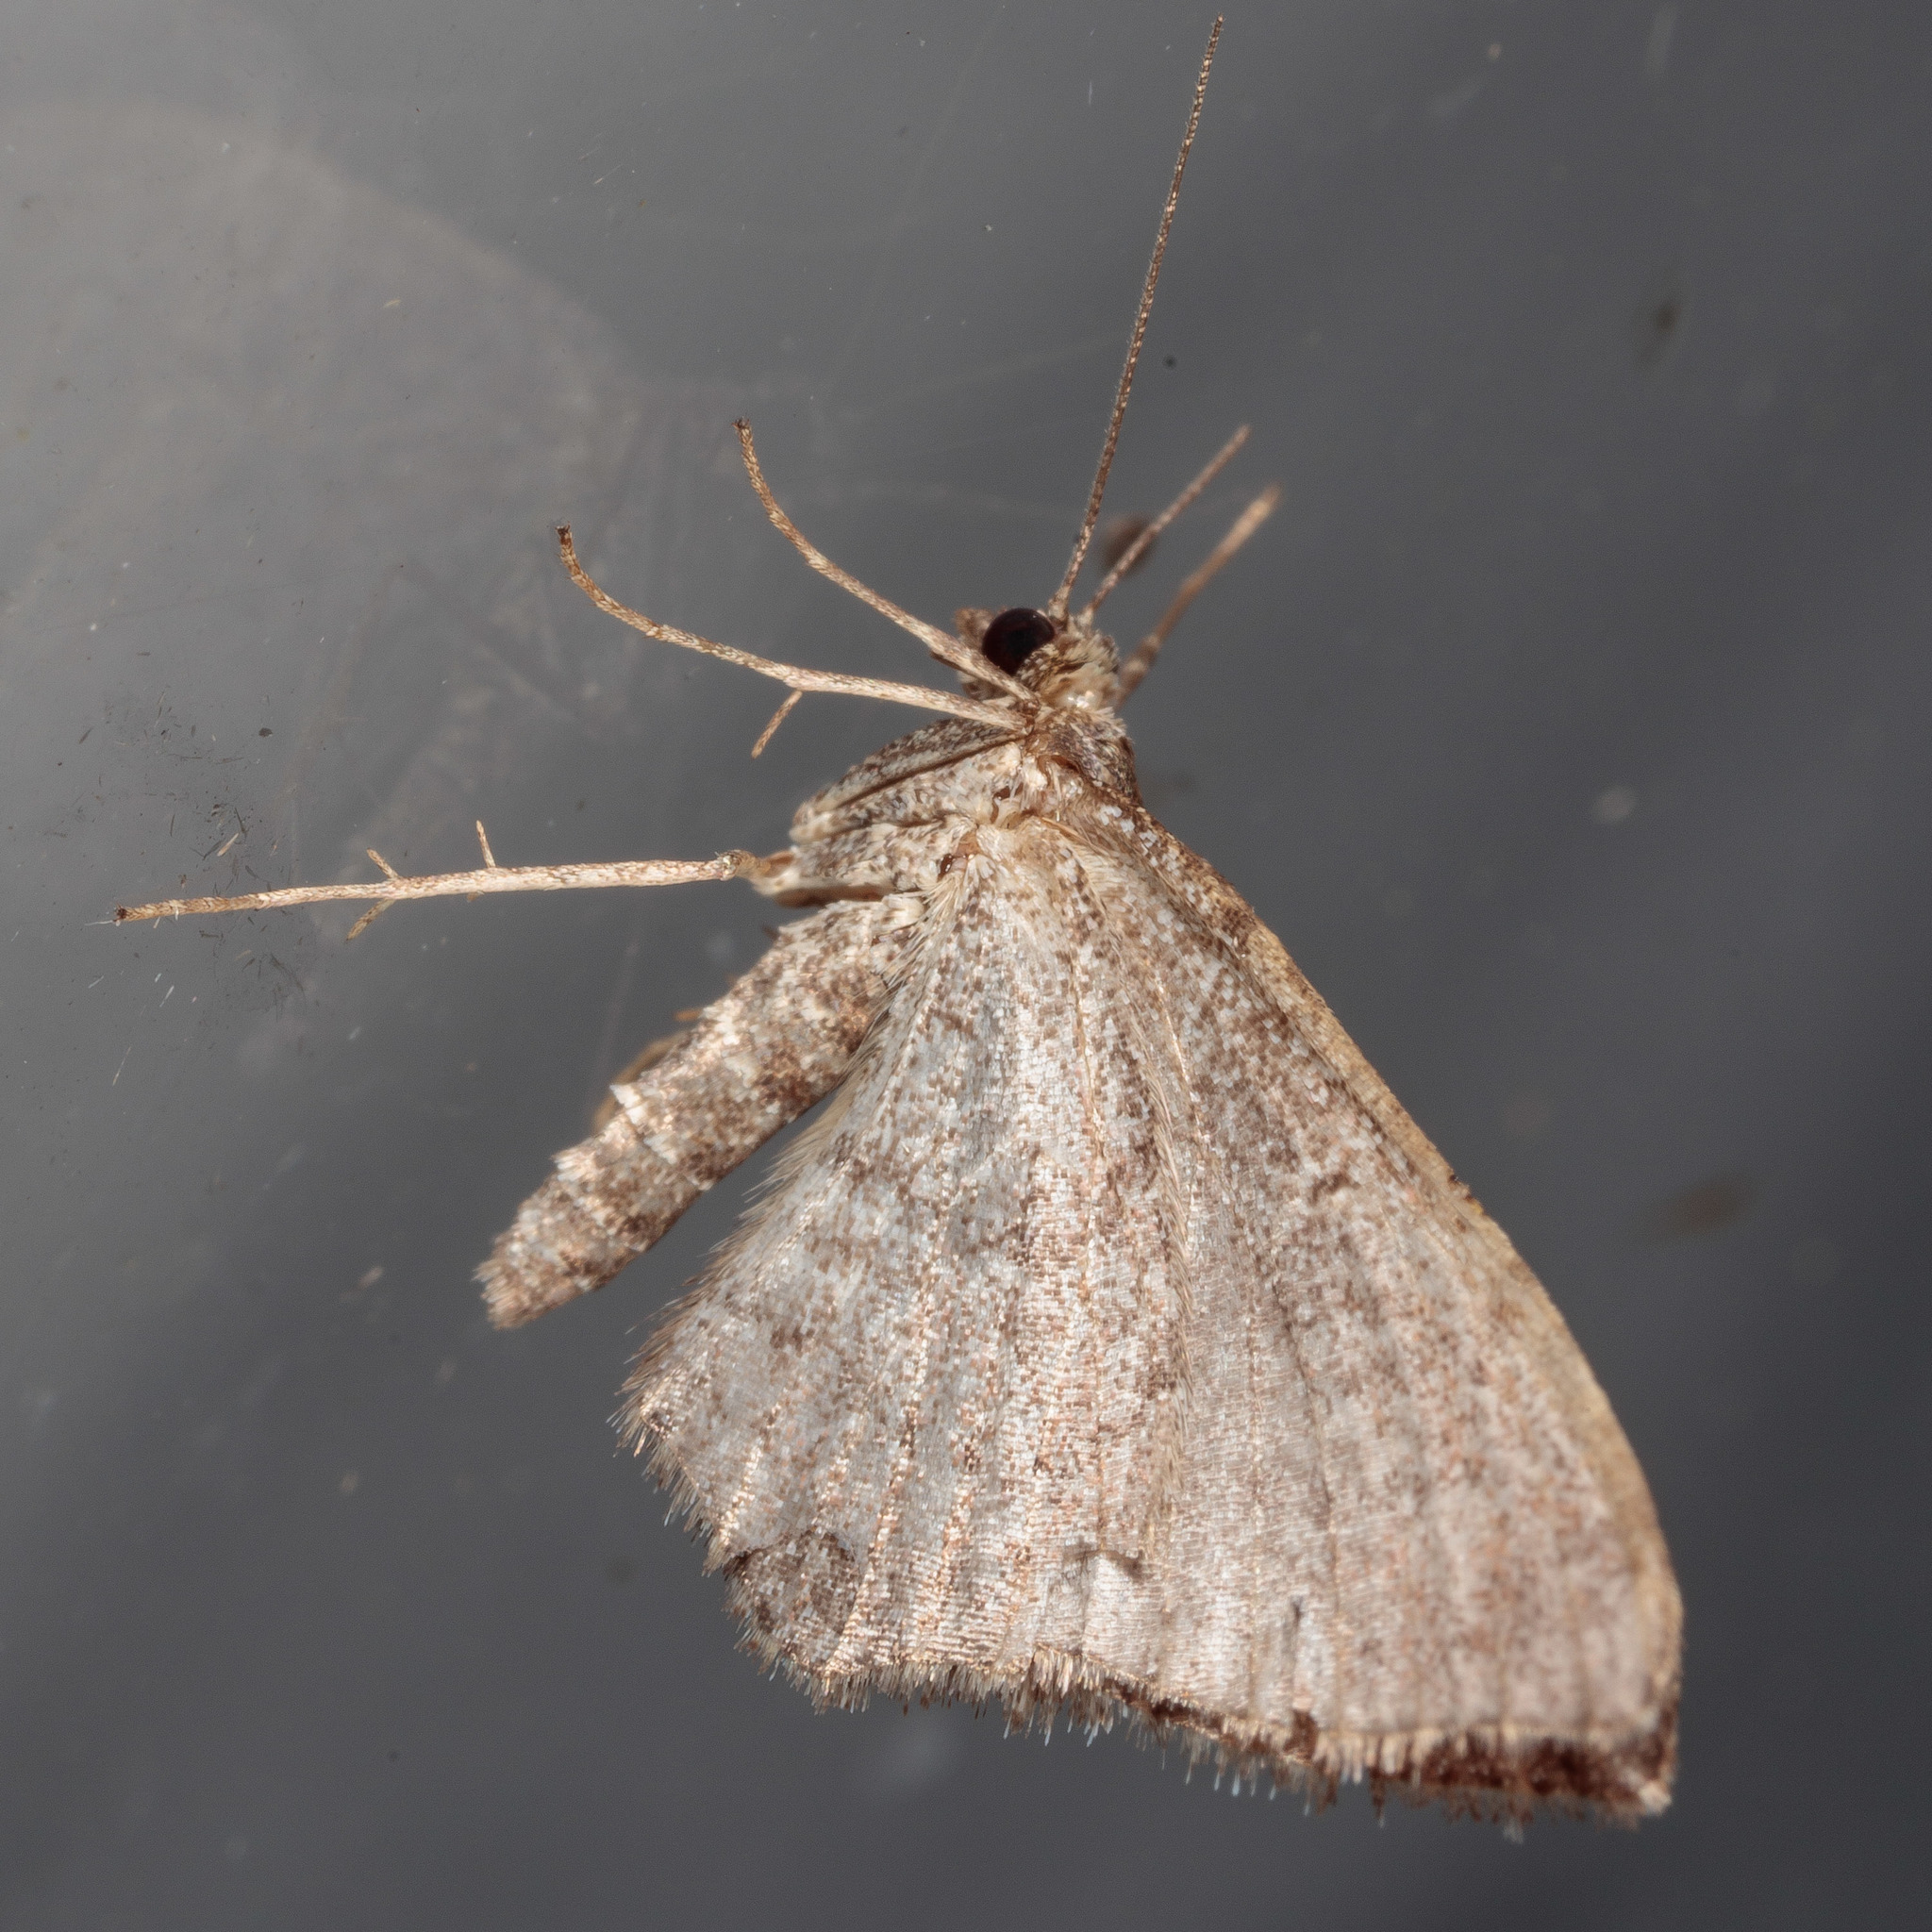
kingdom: Animalia
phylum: Arthropoda
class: Insecta
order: Lepidoptera
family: Geometridae
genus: Orthonama
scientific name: Orthonama obstipata
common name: The gem
